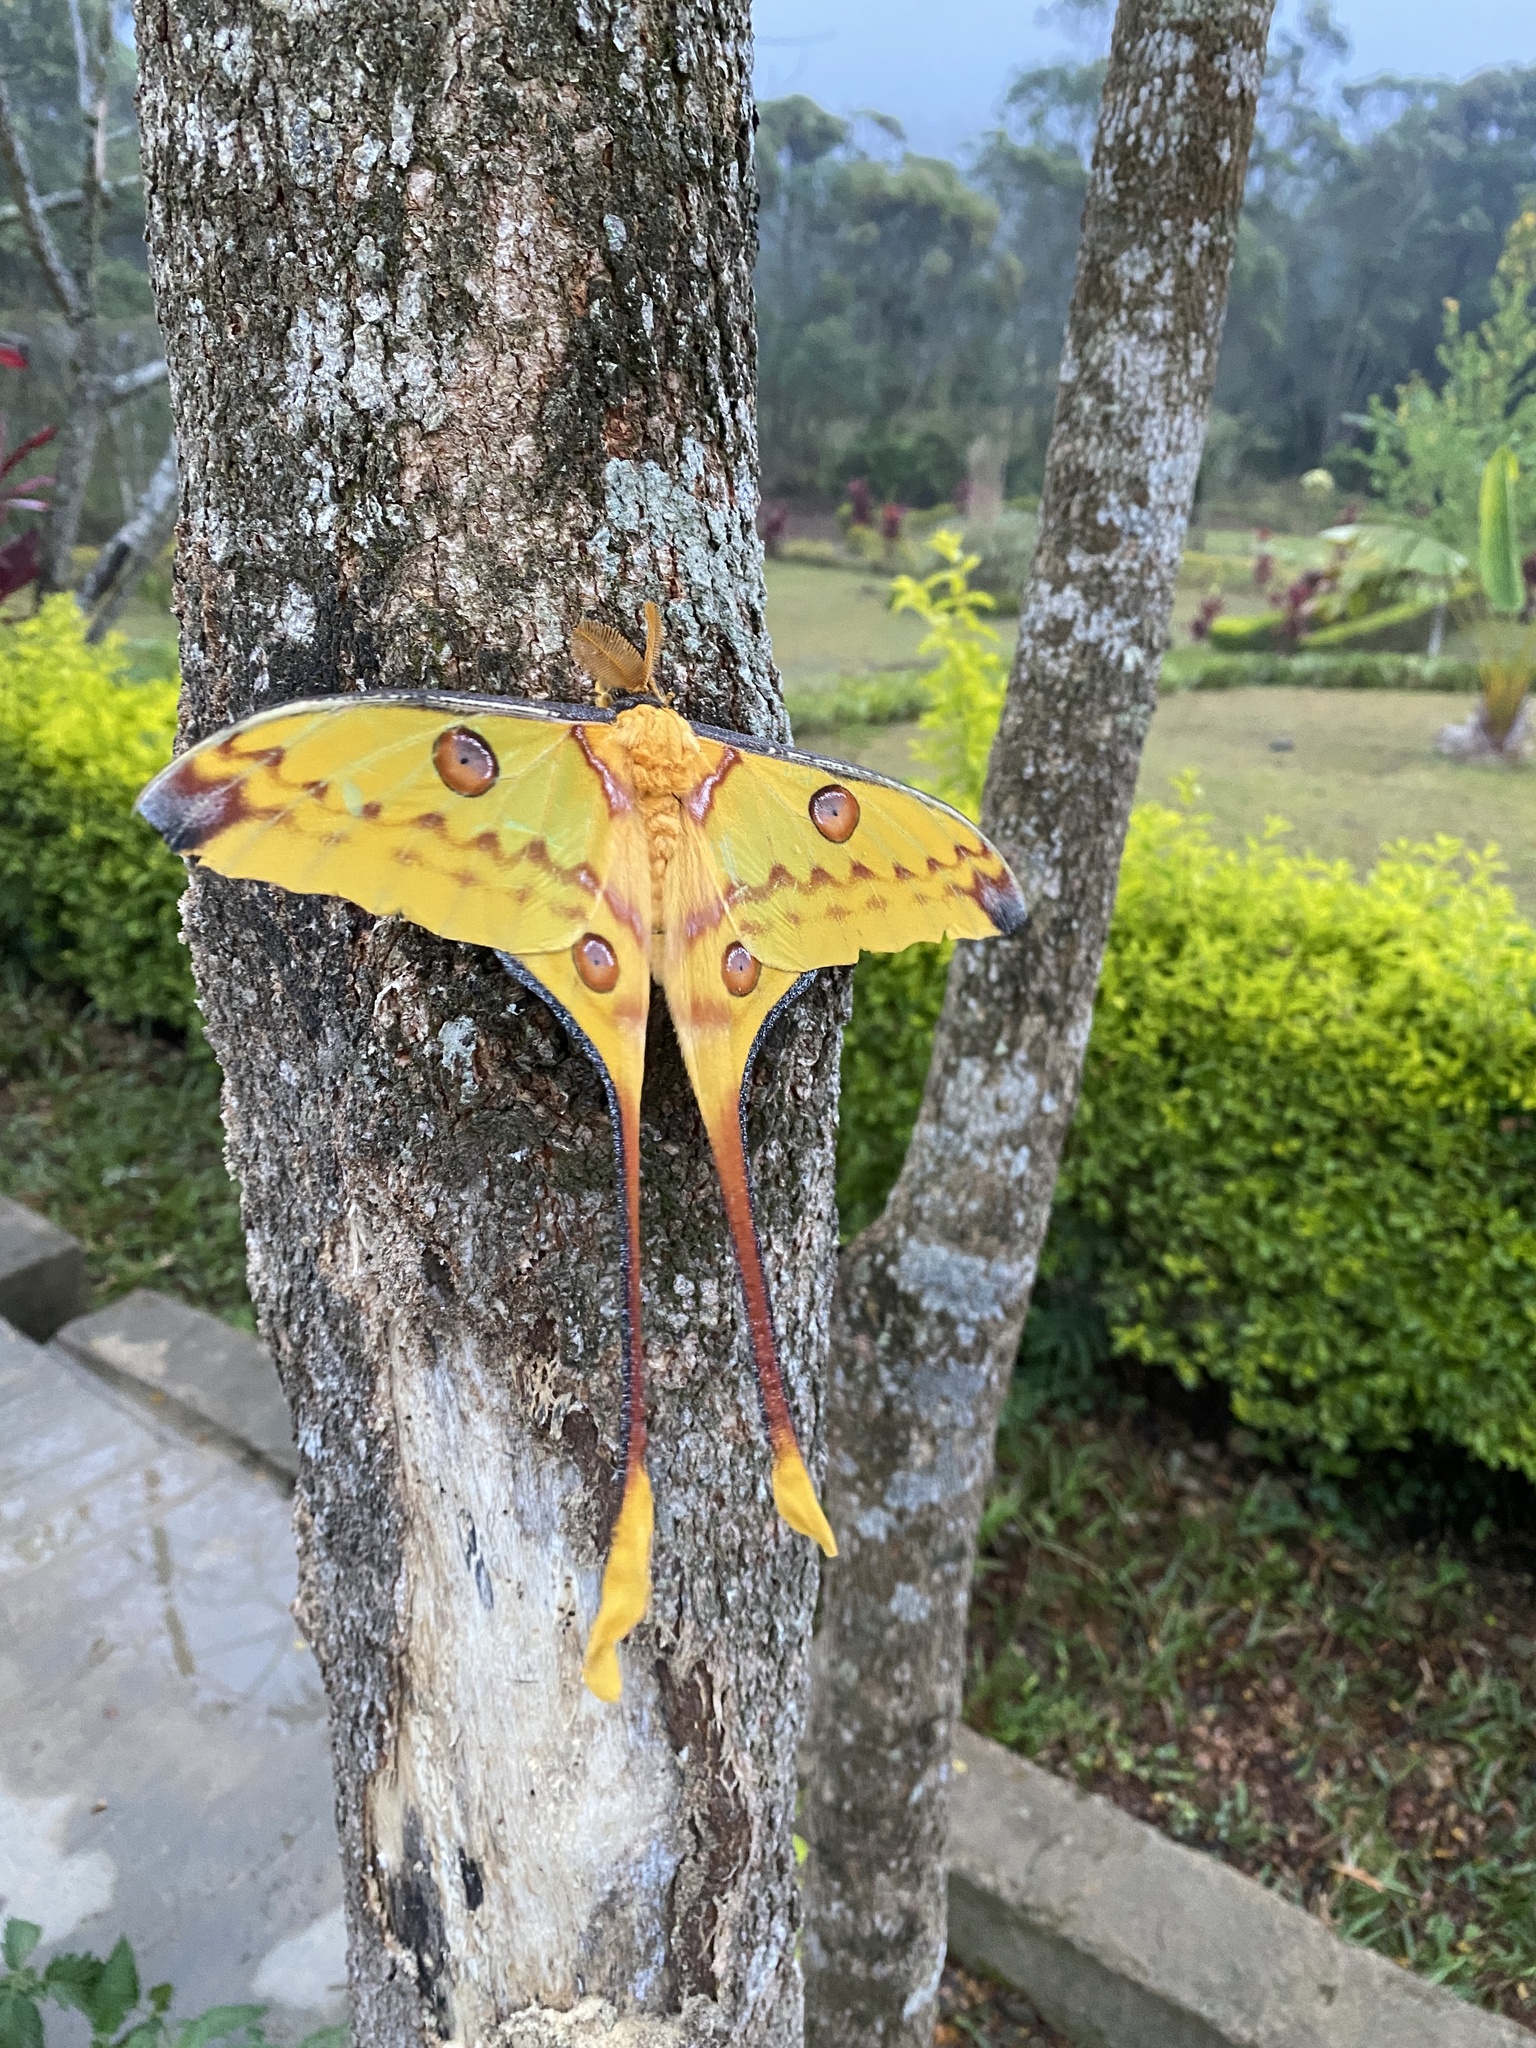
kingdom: Animalia
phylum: Arthropoda
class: Insecta
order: Lepidoptera
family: Saturniidae
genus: Argema
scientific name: Argema mittrei
